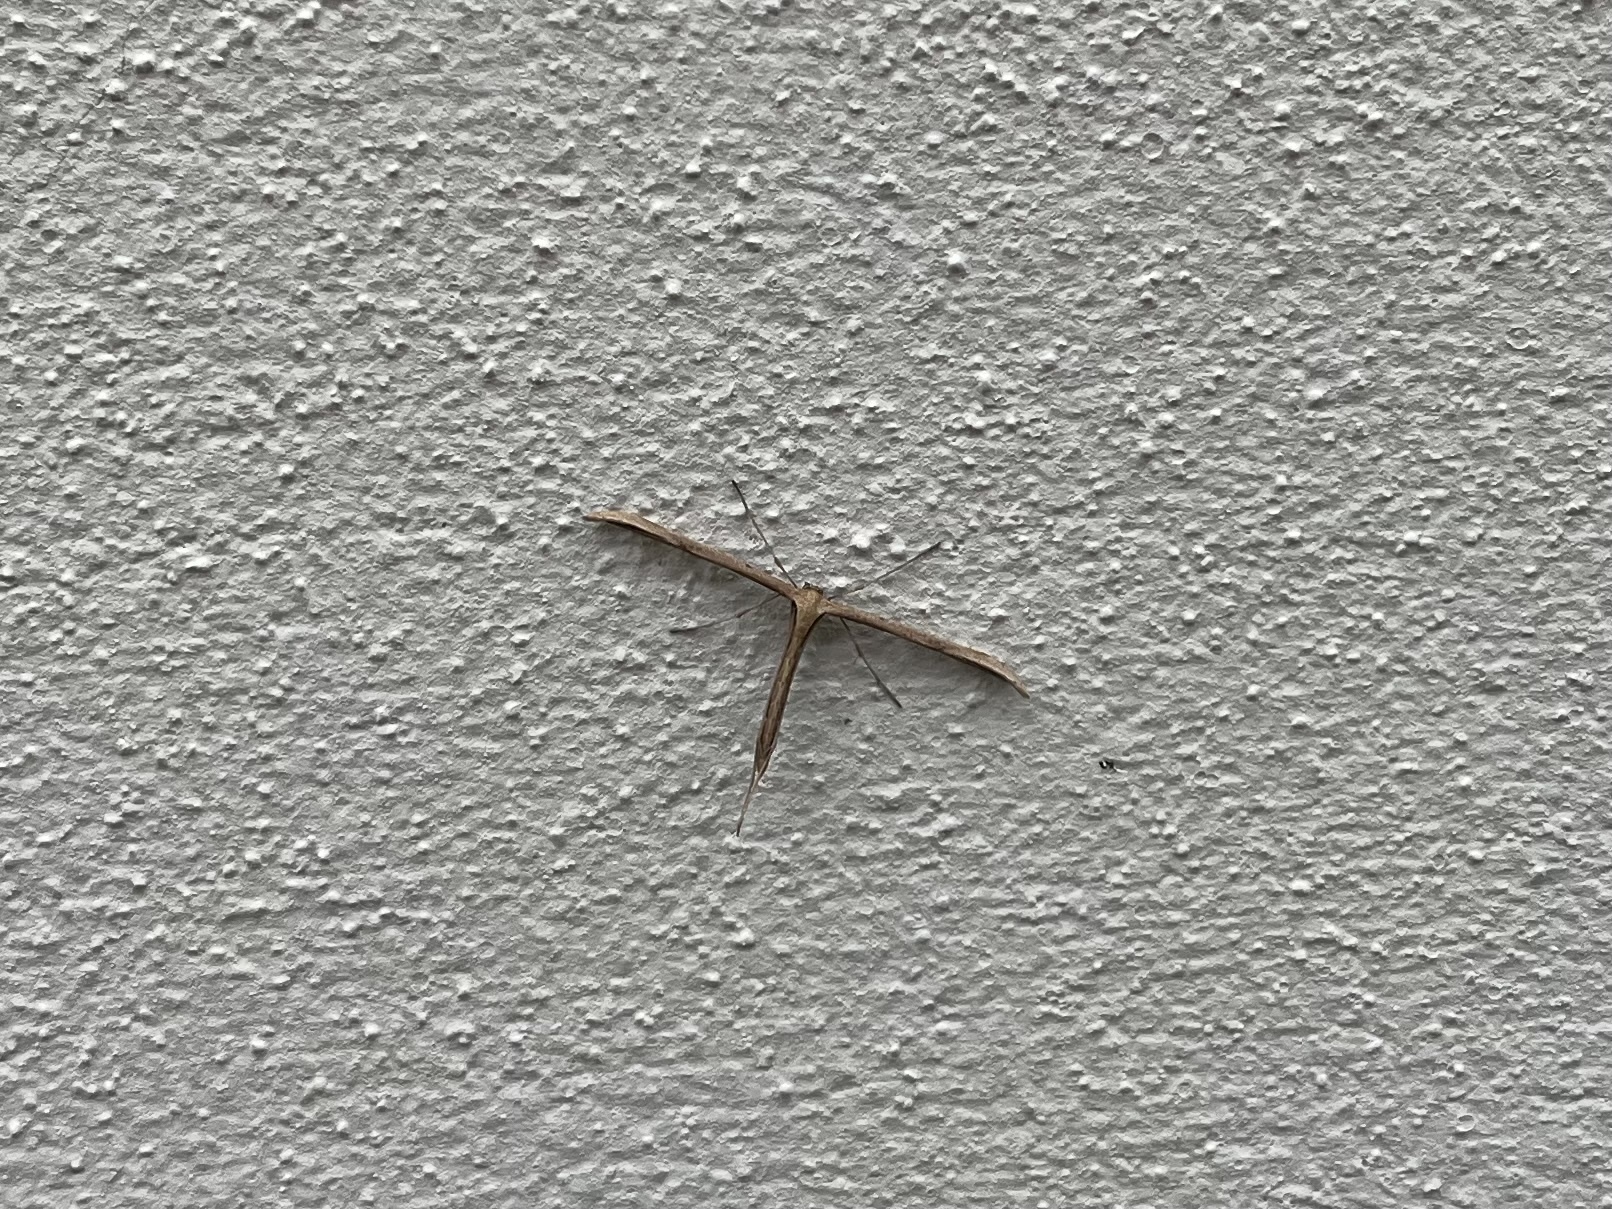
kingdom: Animalia
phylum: Arthropoda
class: Insecta
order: Lepidoptera
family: Pterophoridae
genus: Emmelina
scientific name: Emmelina monodactyla
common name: Common plume
